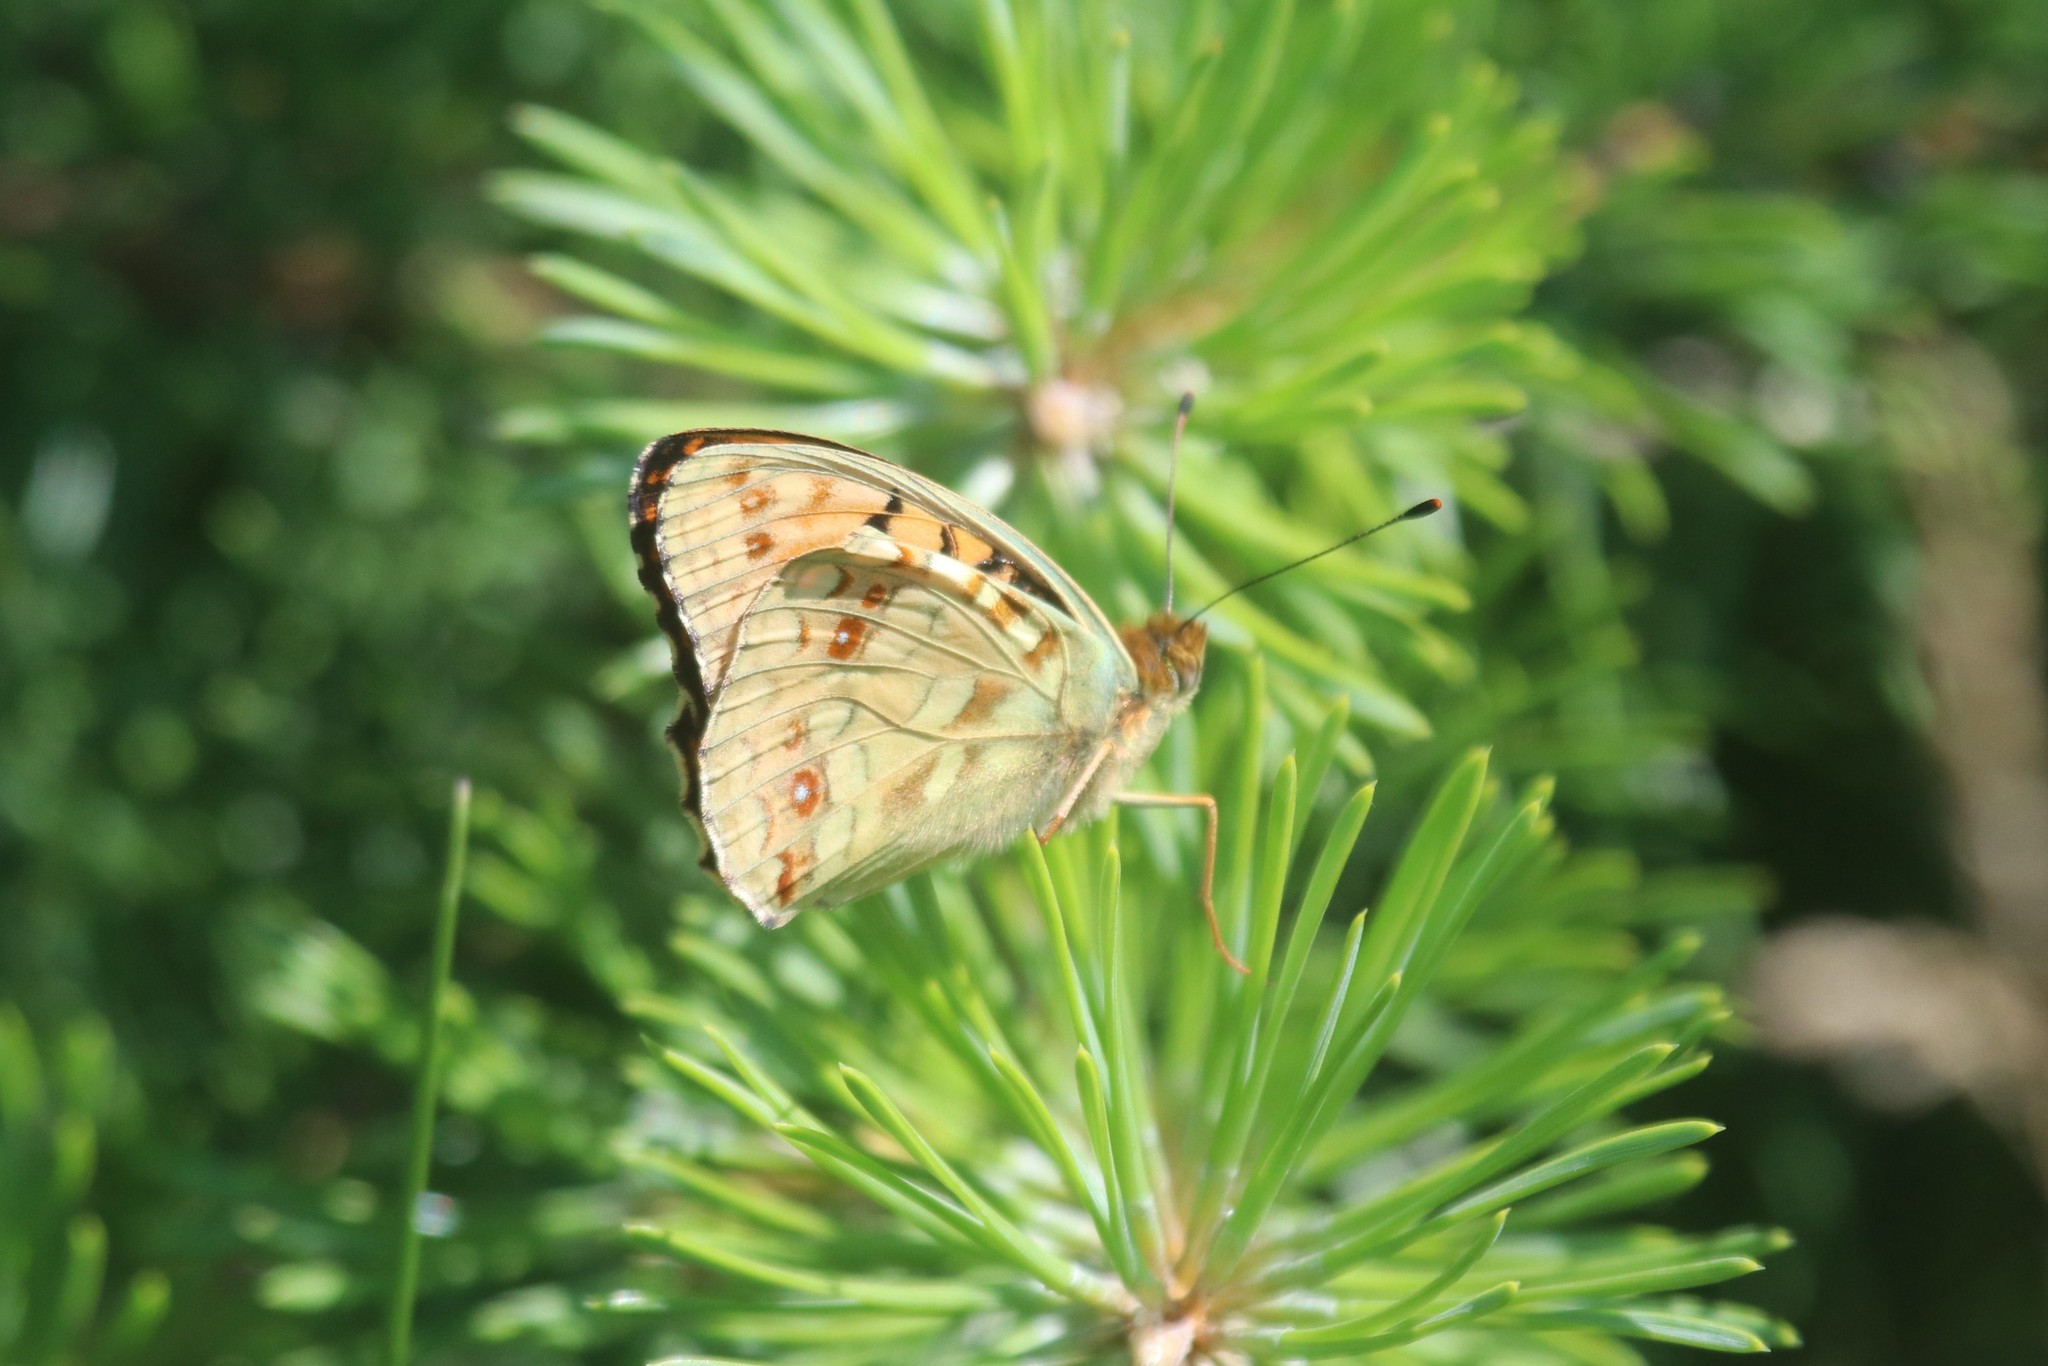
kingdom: Animalia
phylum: Arthropoda
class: Insecta
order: Lepidoptera
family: Nymphalidae
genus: Fabriciana
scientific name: Fabriciana adippe
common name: High brown fritillary
